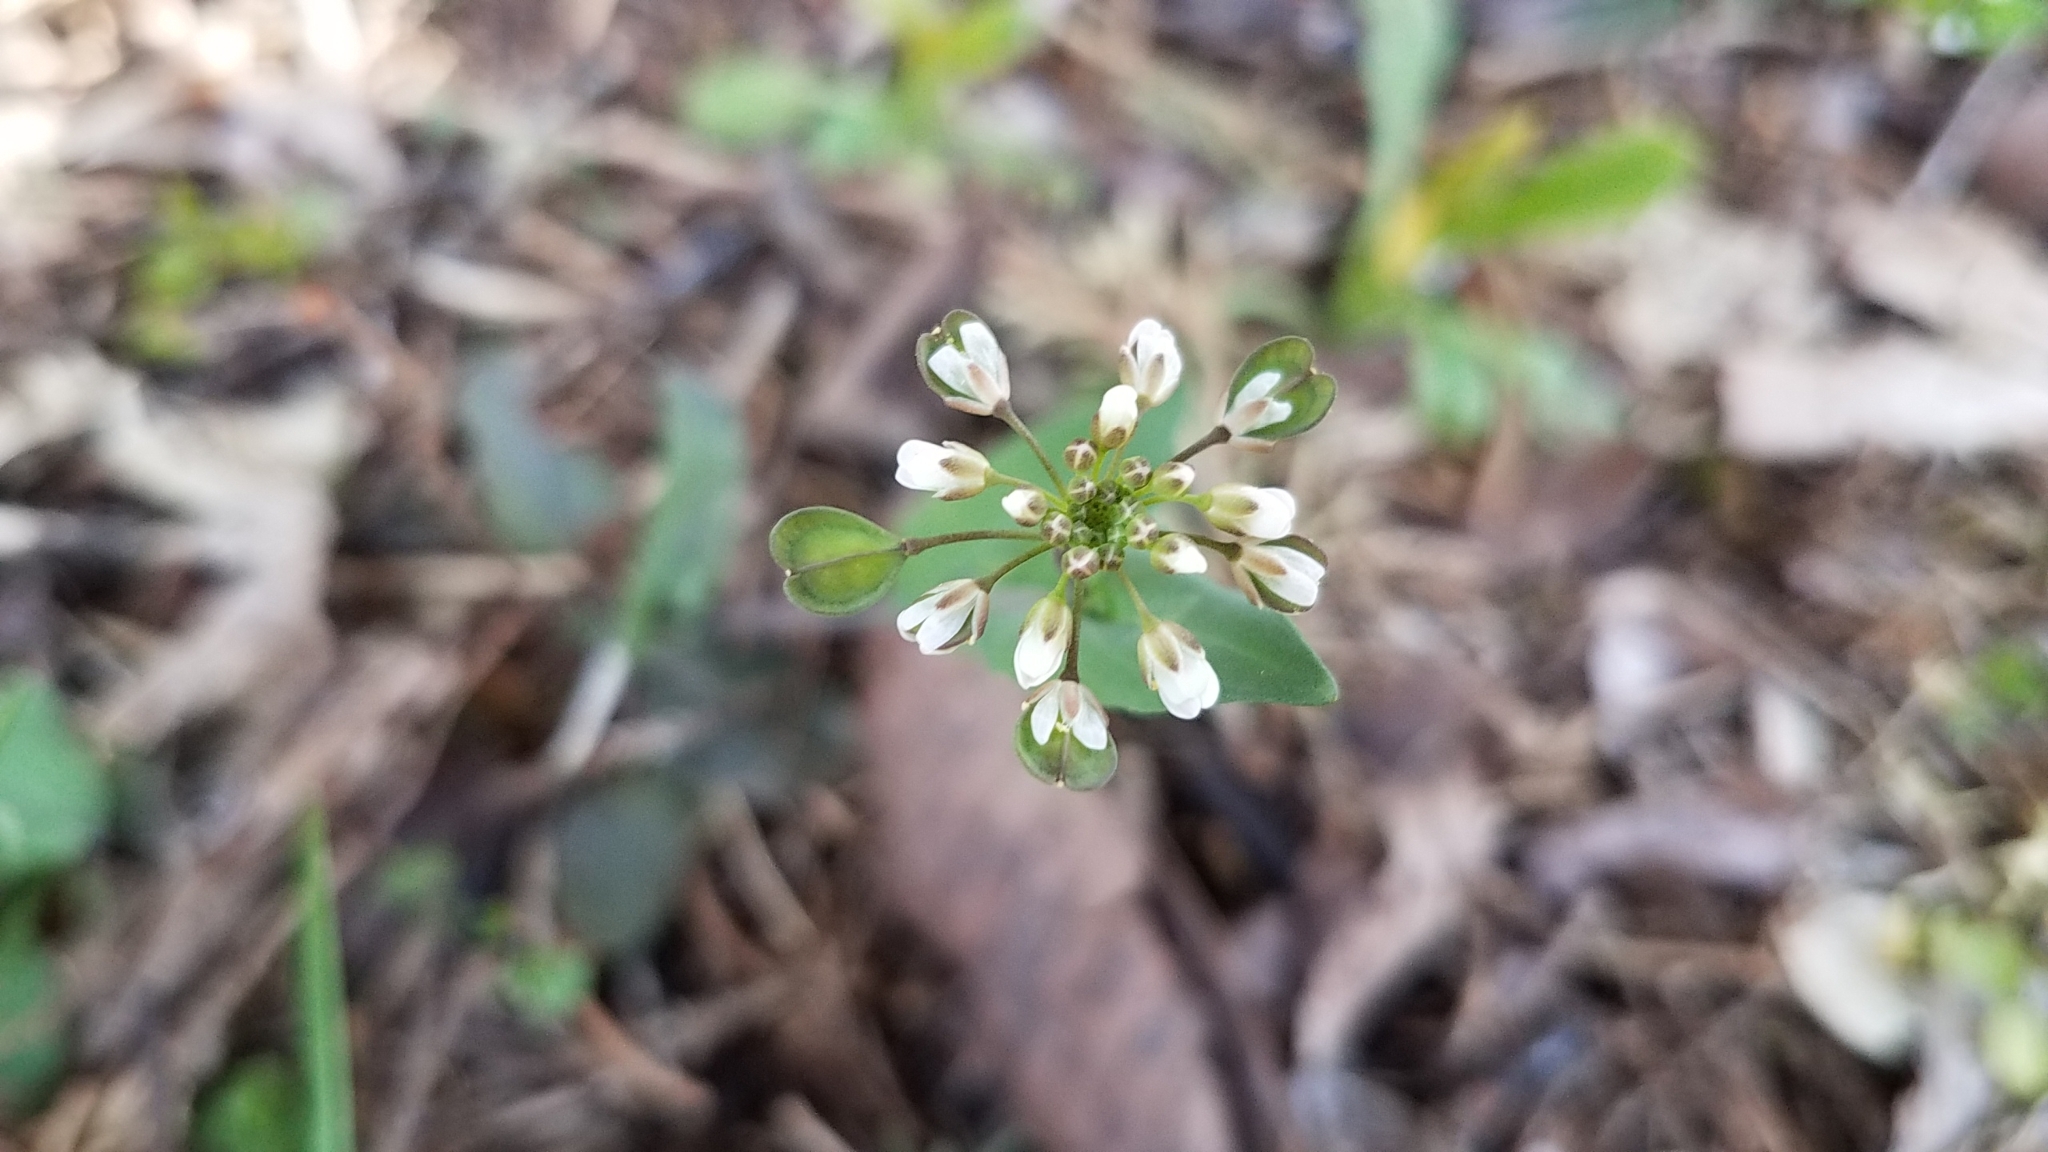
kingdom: Plantae
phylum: Tracheophyta
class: Magnoliopsida
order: Brassicales
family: Brassicaceae
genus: Noccaea
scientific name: Noccaea perfoliata
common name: Perfoliate pennycress
